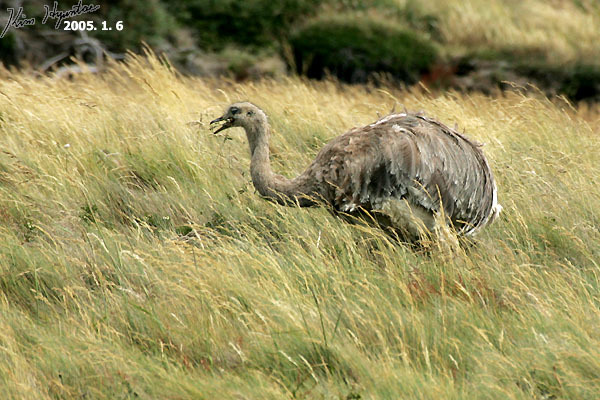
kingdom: Animalia
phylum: Chordata
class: Aves
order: Rheiformes
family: Rheidae
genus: Rhea
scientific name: Rhea pennata
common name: Lesser rhea
